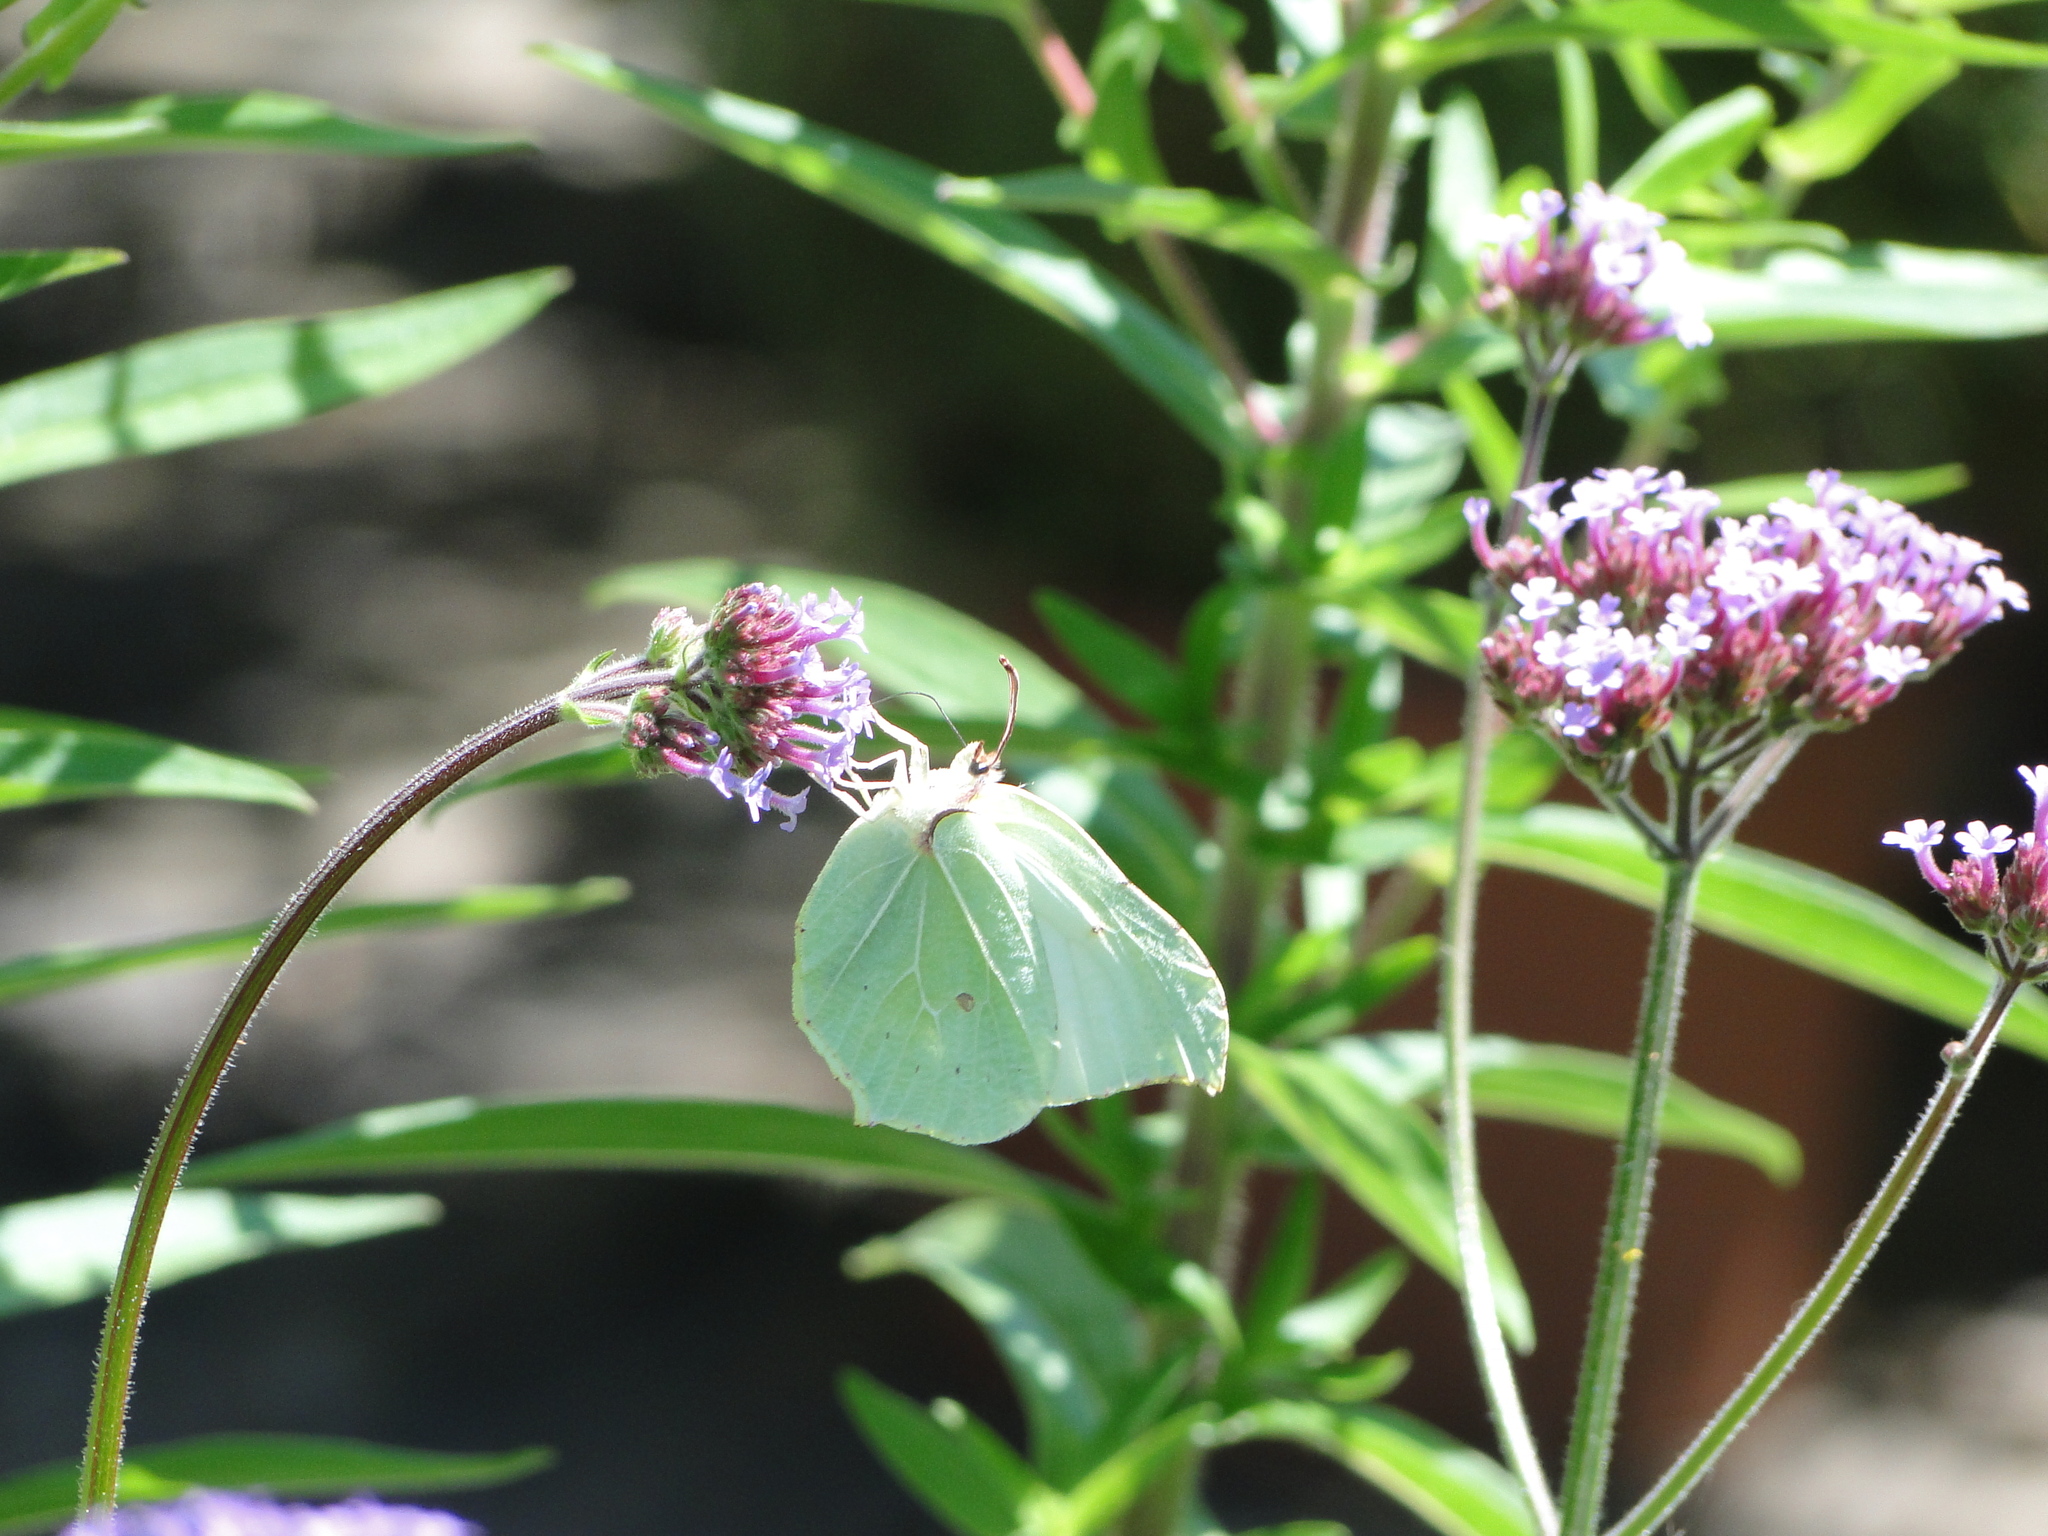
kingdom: Animalia
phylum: Arthropoda
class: Insecta
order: Lepidoptera
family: Pieridae
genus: Gonepteryx
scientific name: Gonepteryx rhamni
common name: Brimstone
